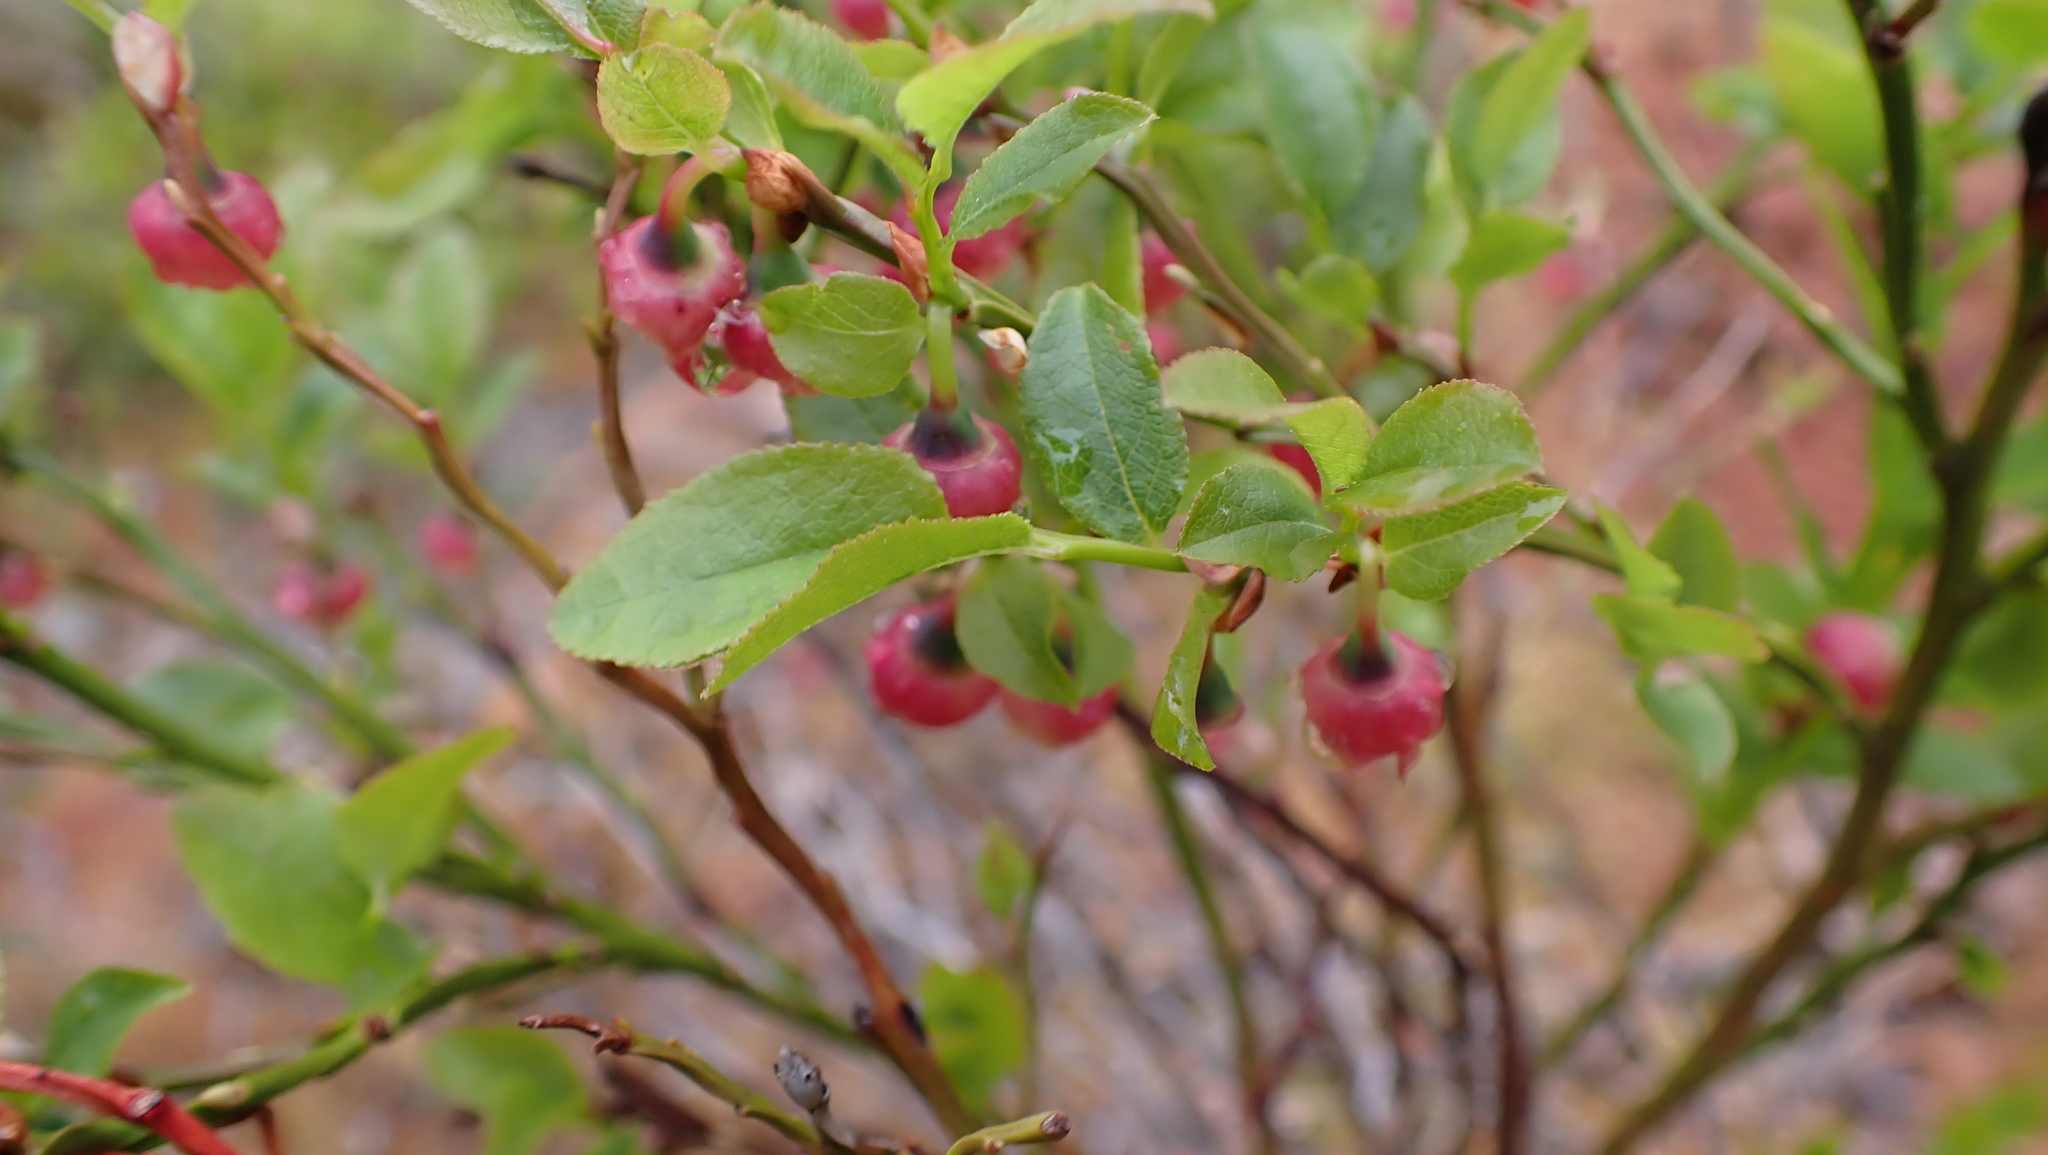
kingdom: Plantae
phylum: Tracheophyta
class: Magnoliopsida
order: Ericales
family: Ericaceae
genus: Vaccinium
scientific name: Vaccinium myrtillus
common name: Bilberry
